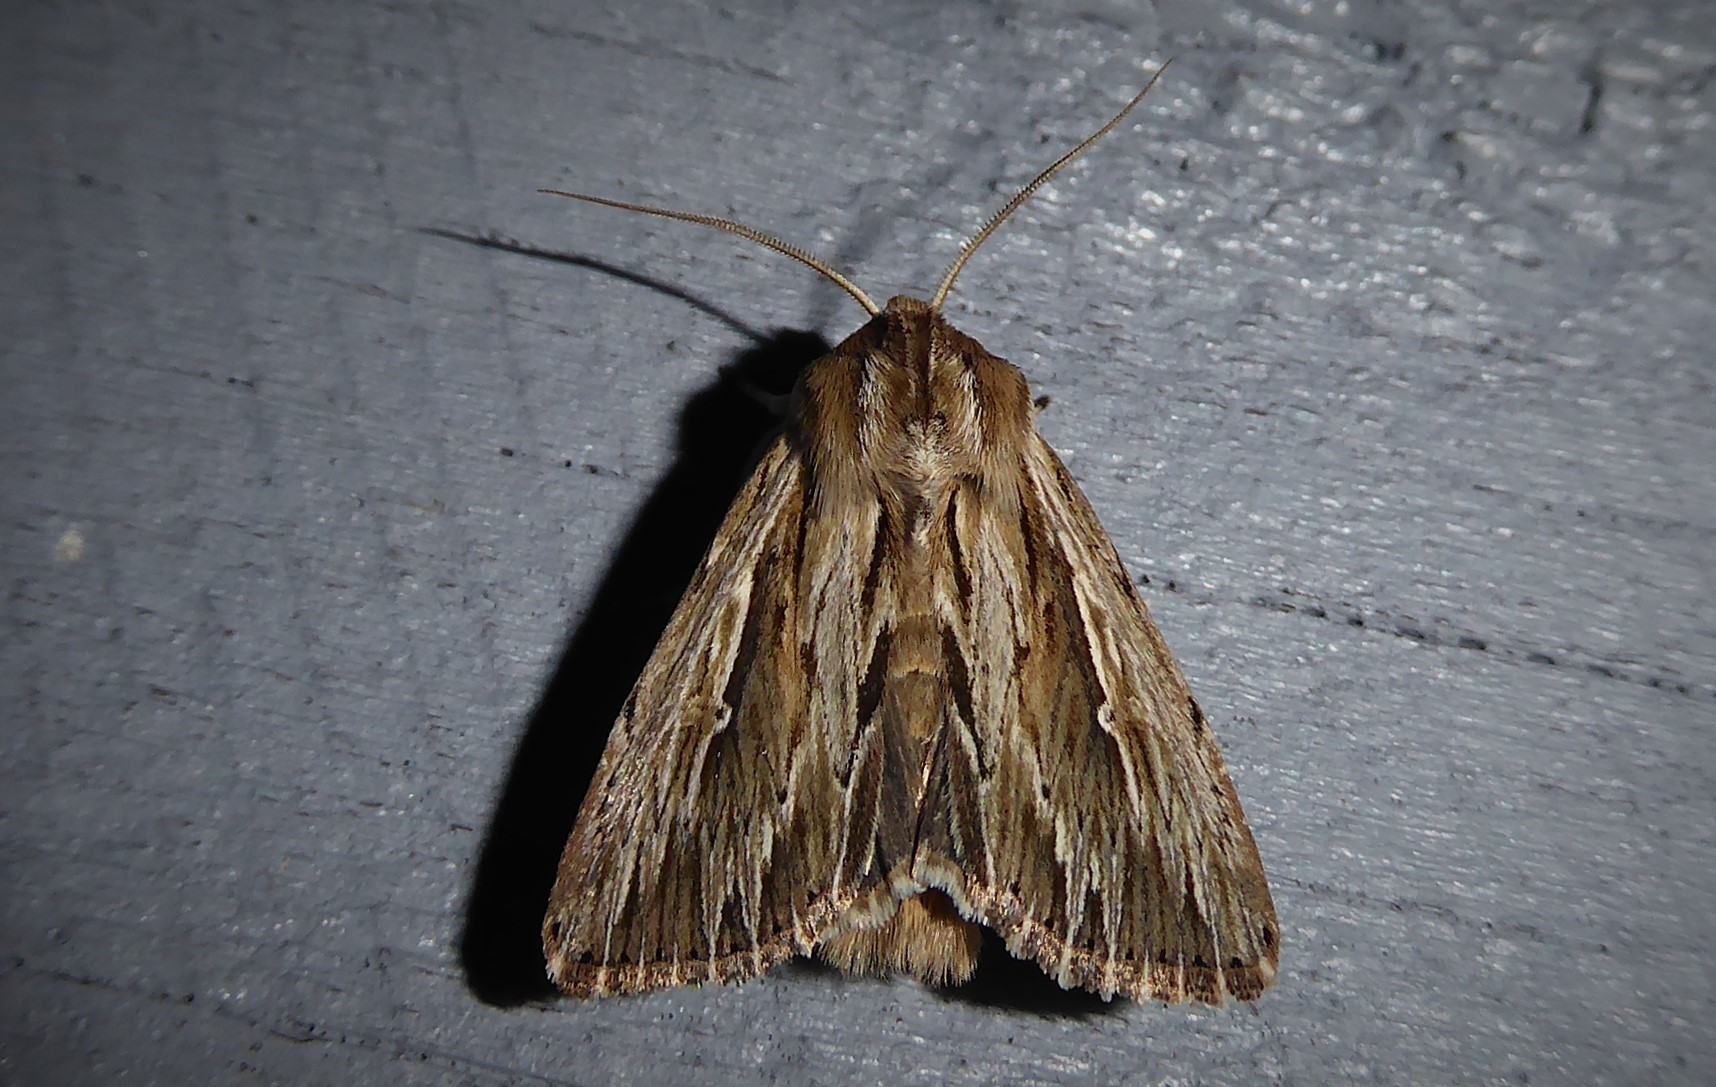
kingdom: Animalia
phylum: Arthropoda
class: Insecta
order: Lepidoptera
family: Noctuidae
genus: Persectania
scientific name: Persectania aversa
